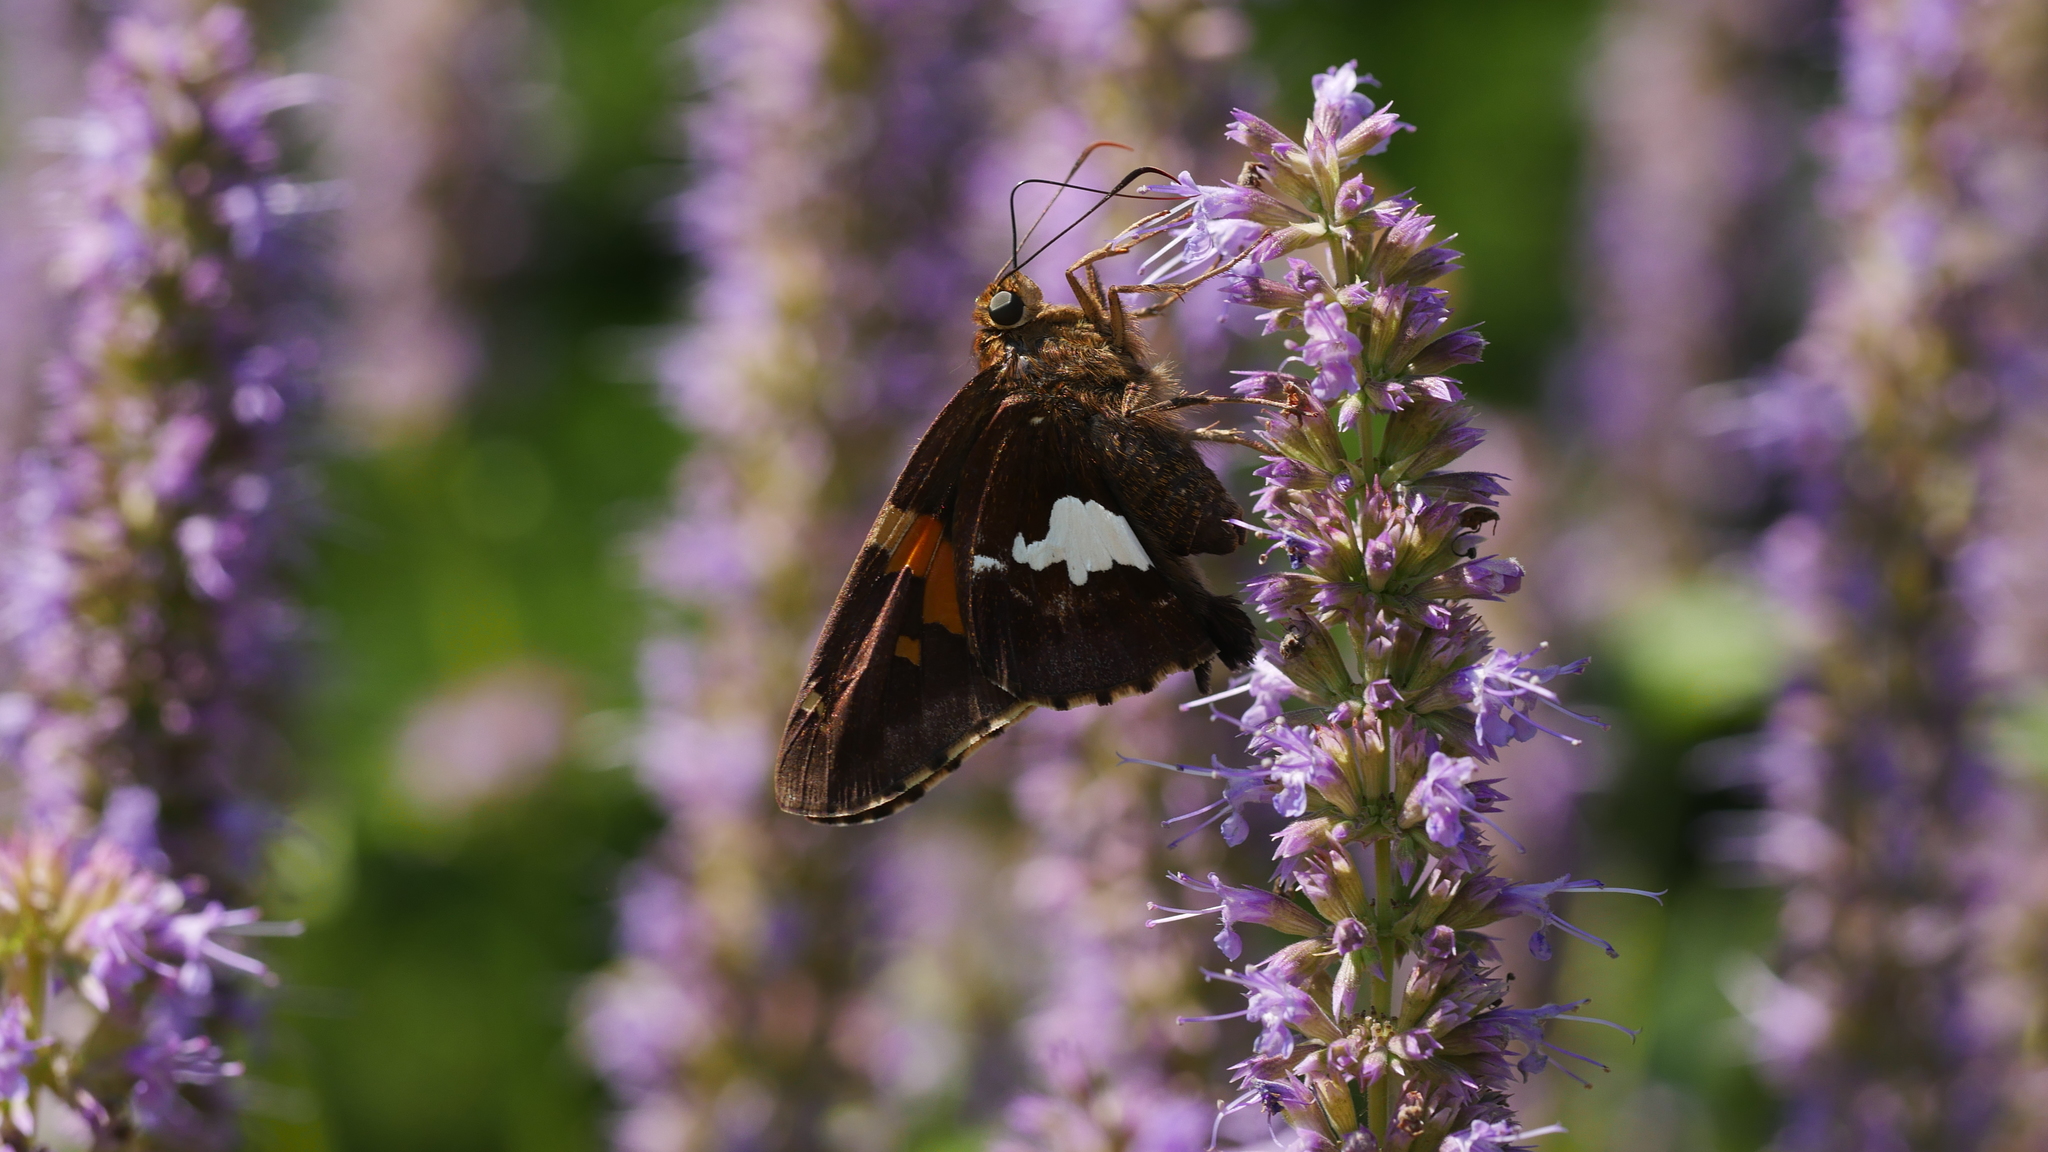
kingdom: Animalia
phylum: Arthropoda
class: Insecta
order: Lepidoptera
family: Hesperiidae
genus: Epargyreus
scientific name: Epargyreus clarus
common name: Silver-spotted skipper
